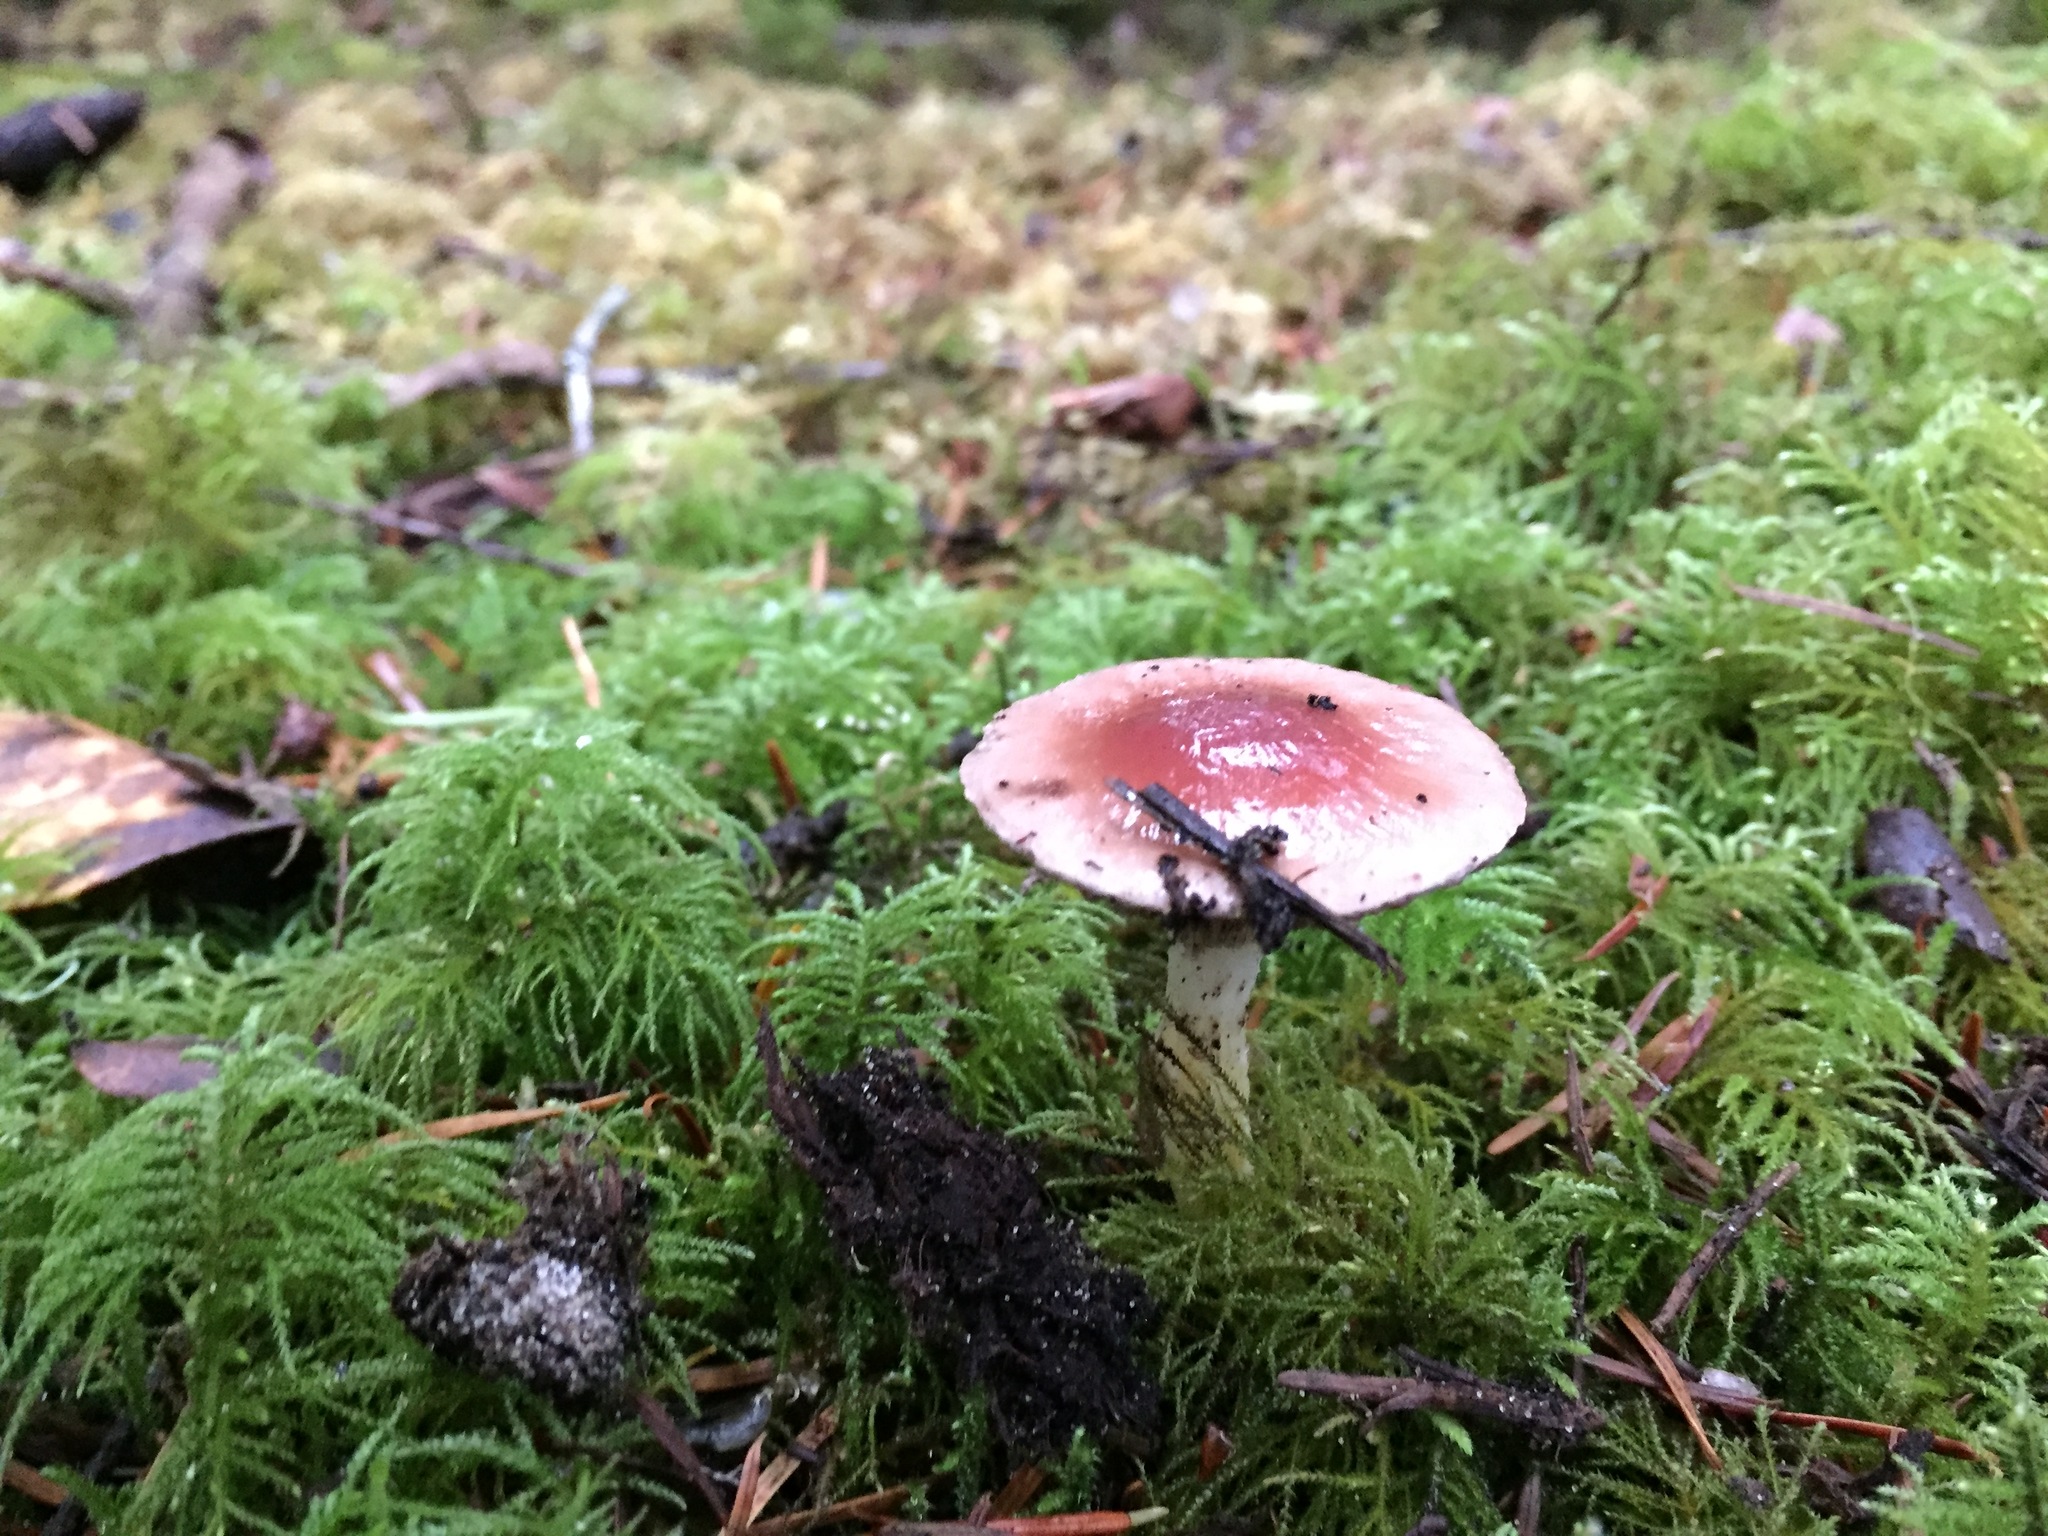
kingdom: Fungi
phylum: Basidiomycota
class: Agaricomycetes
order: Boletales
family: Gomphidiaceae
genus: Gomphidius
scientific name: Gomphidius subroseus
